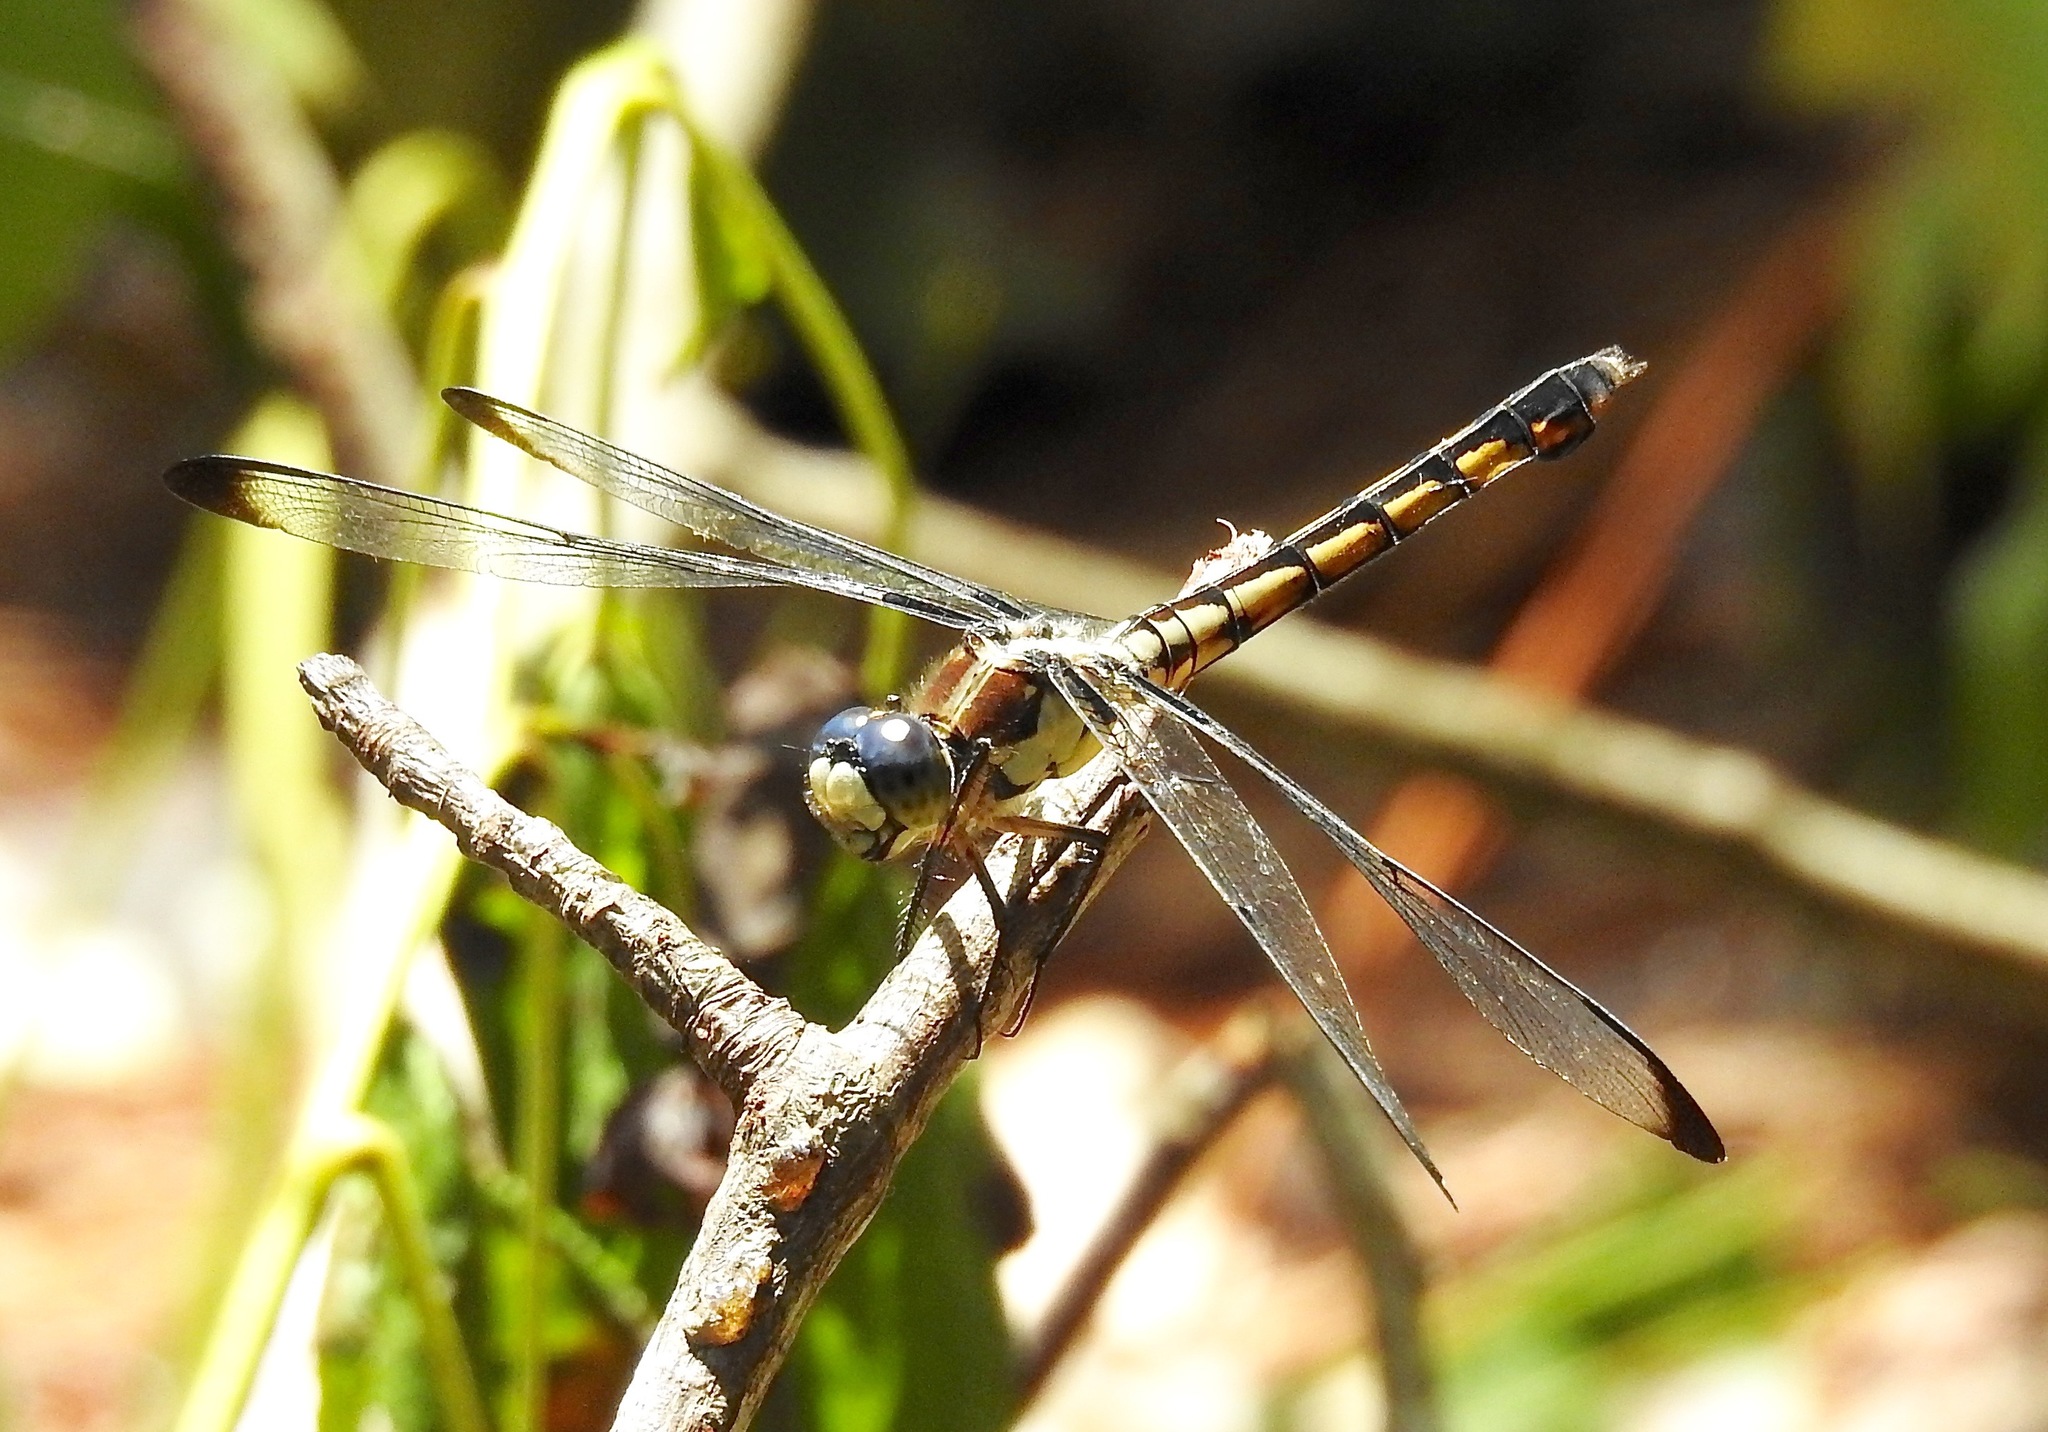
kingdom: Animalia
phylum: Arthropoda
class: Insecta
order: Odonata
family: Libellulidae
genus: Libellula
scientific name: Libellula vibrans
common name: Great blue skimmer
